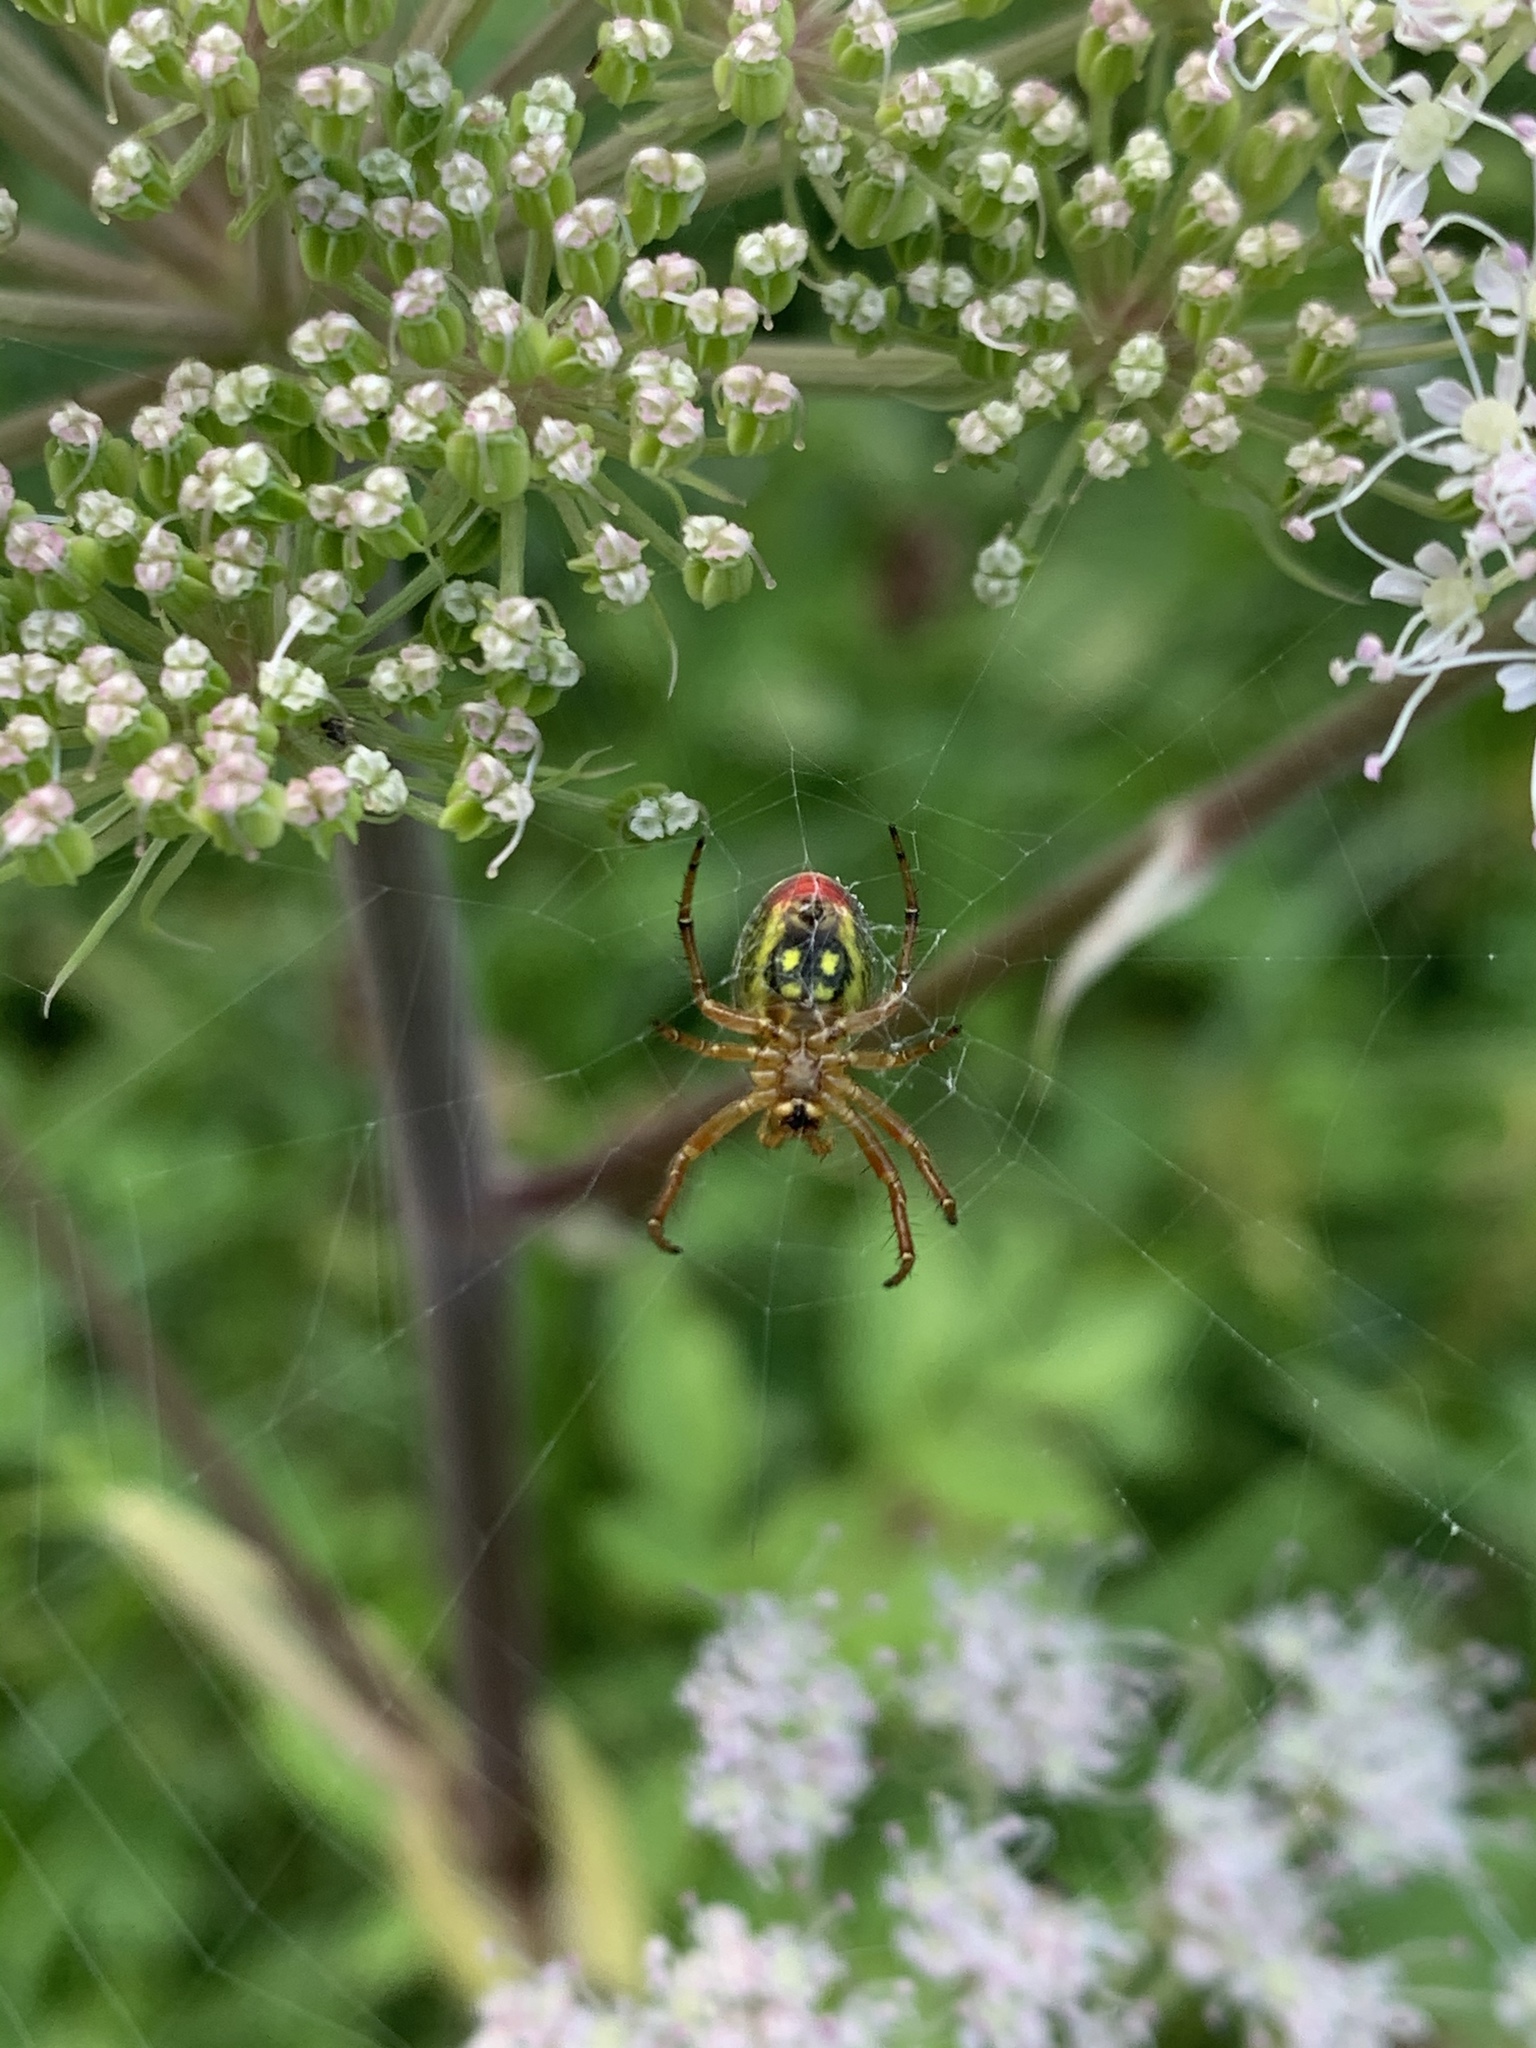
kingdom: Animalia
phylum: Arthropoda
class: Arachnida
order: Araneae
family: Araneidae
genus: Araniella
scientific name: Araniella alpica
